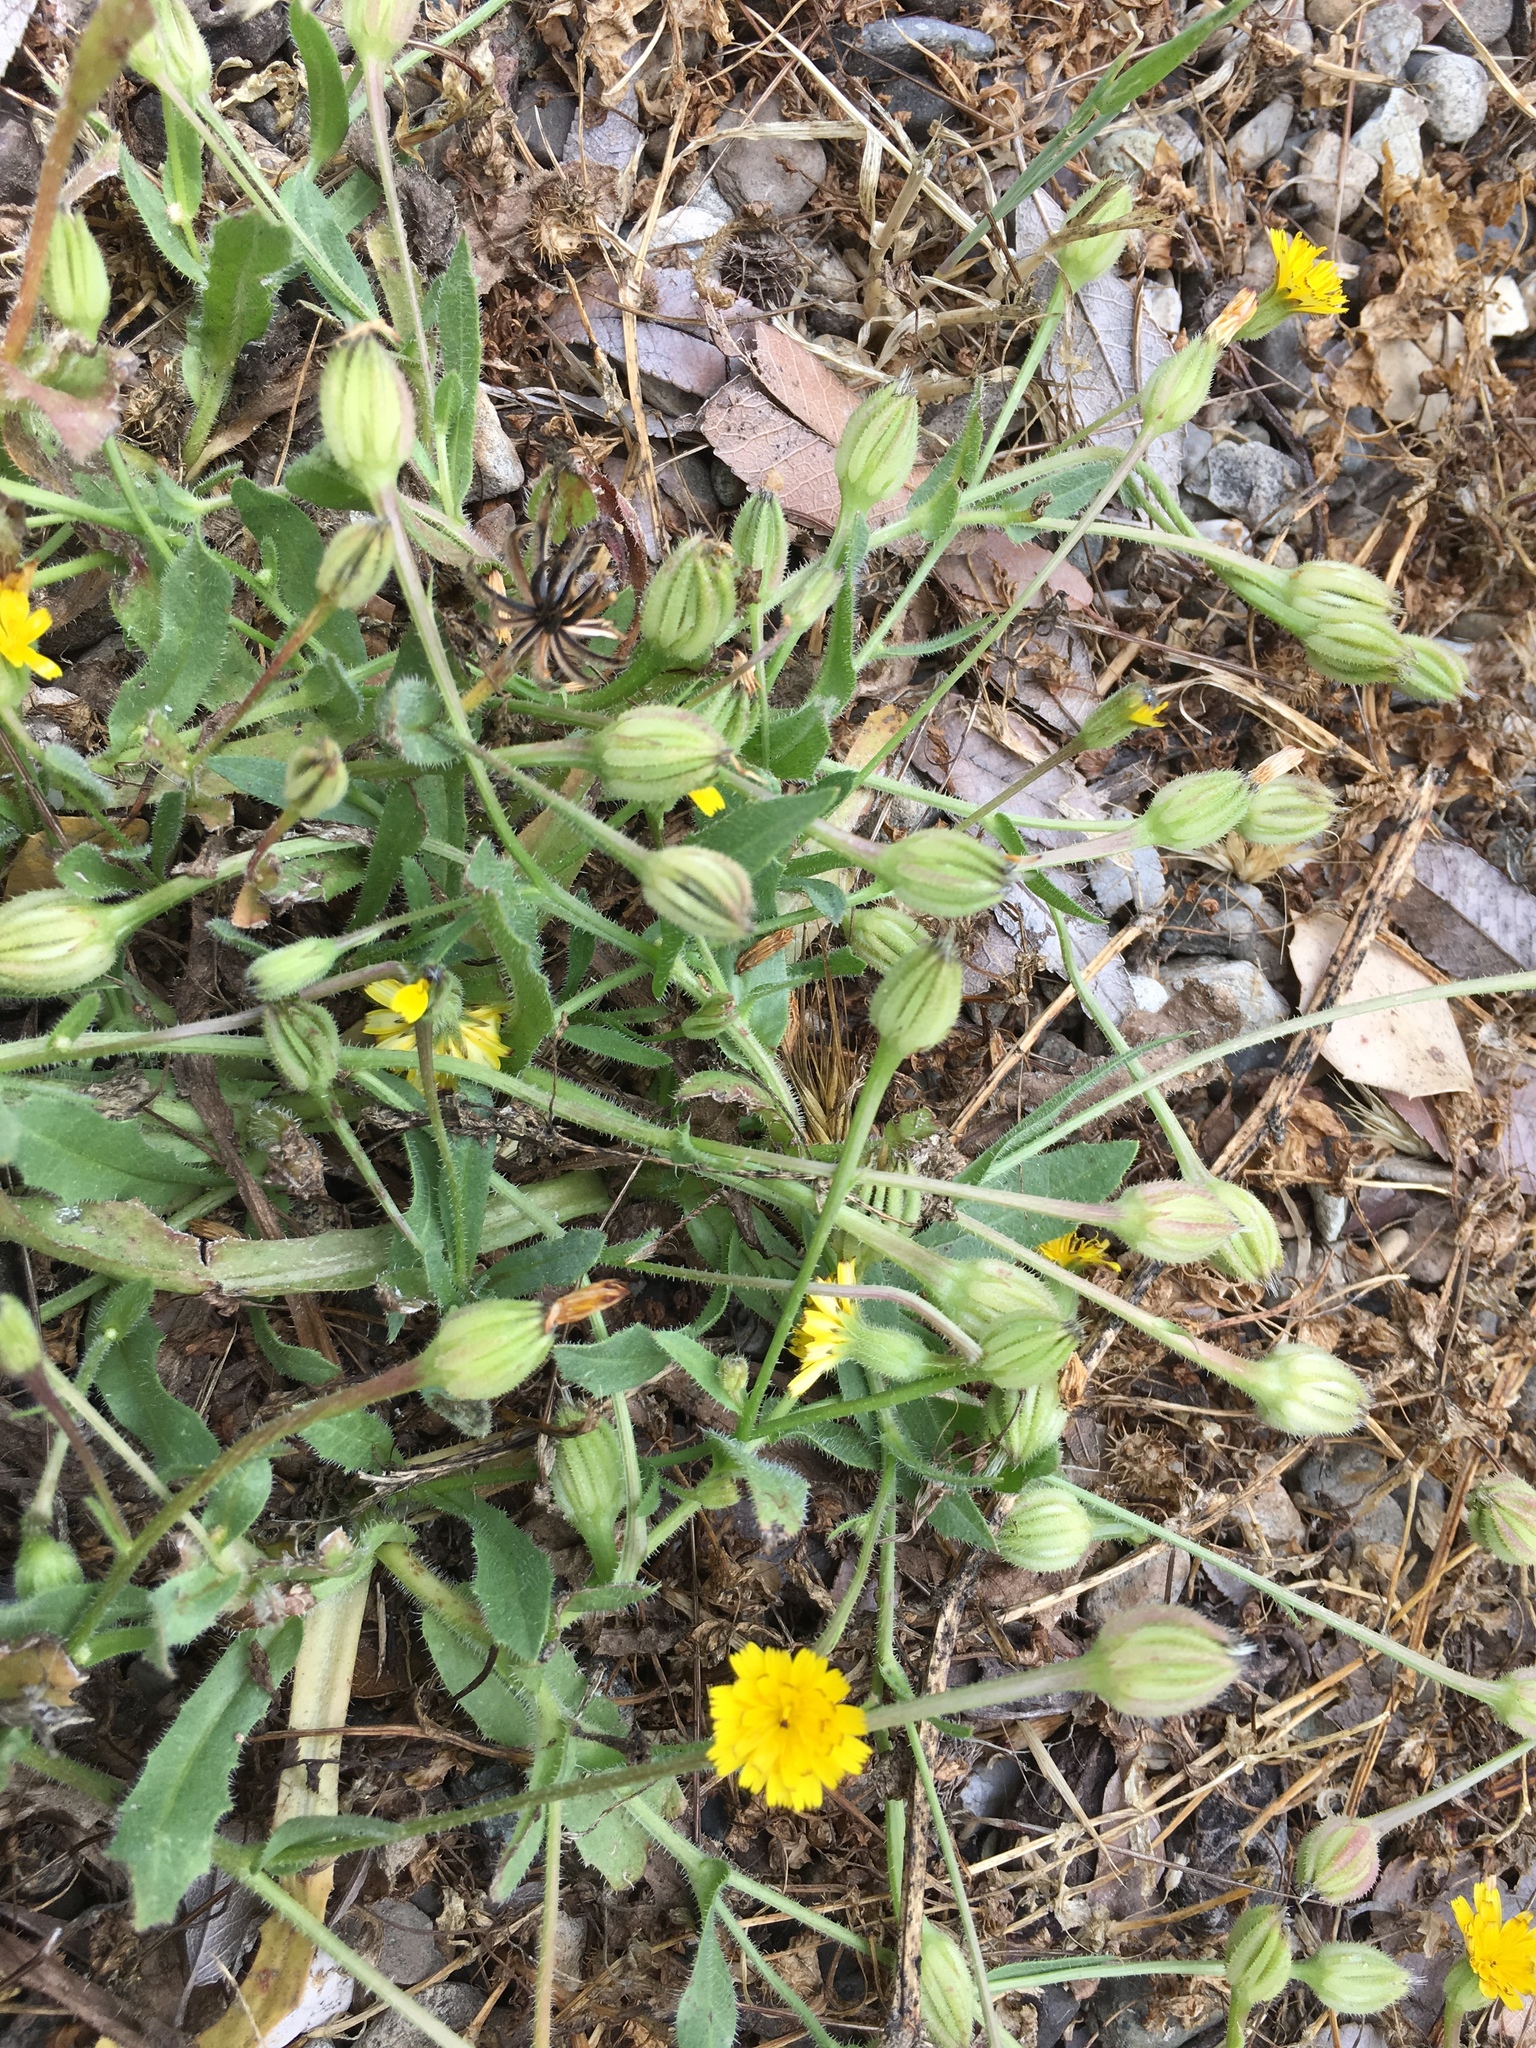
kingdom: Plantae
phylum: Tracheophyta
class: Magnoliopsida
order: Asterales
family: Asteraceae
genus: Hedypnois
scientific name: Hedypnois rhagadioloides
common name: Cretan weed
